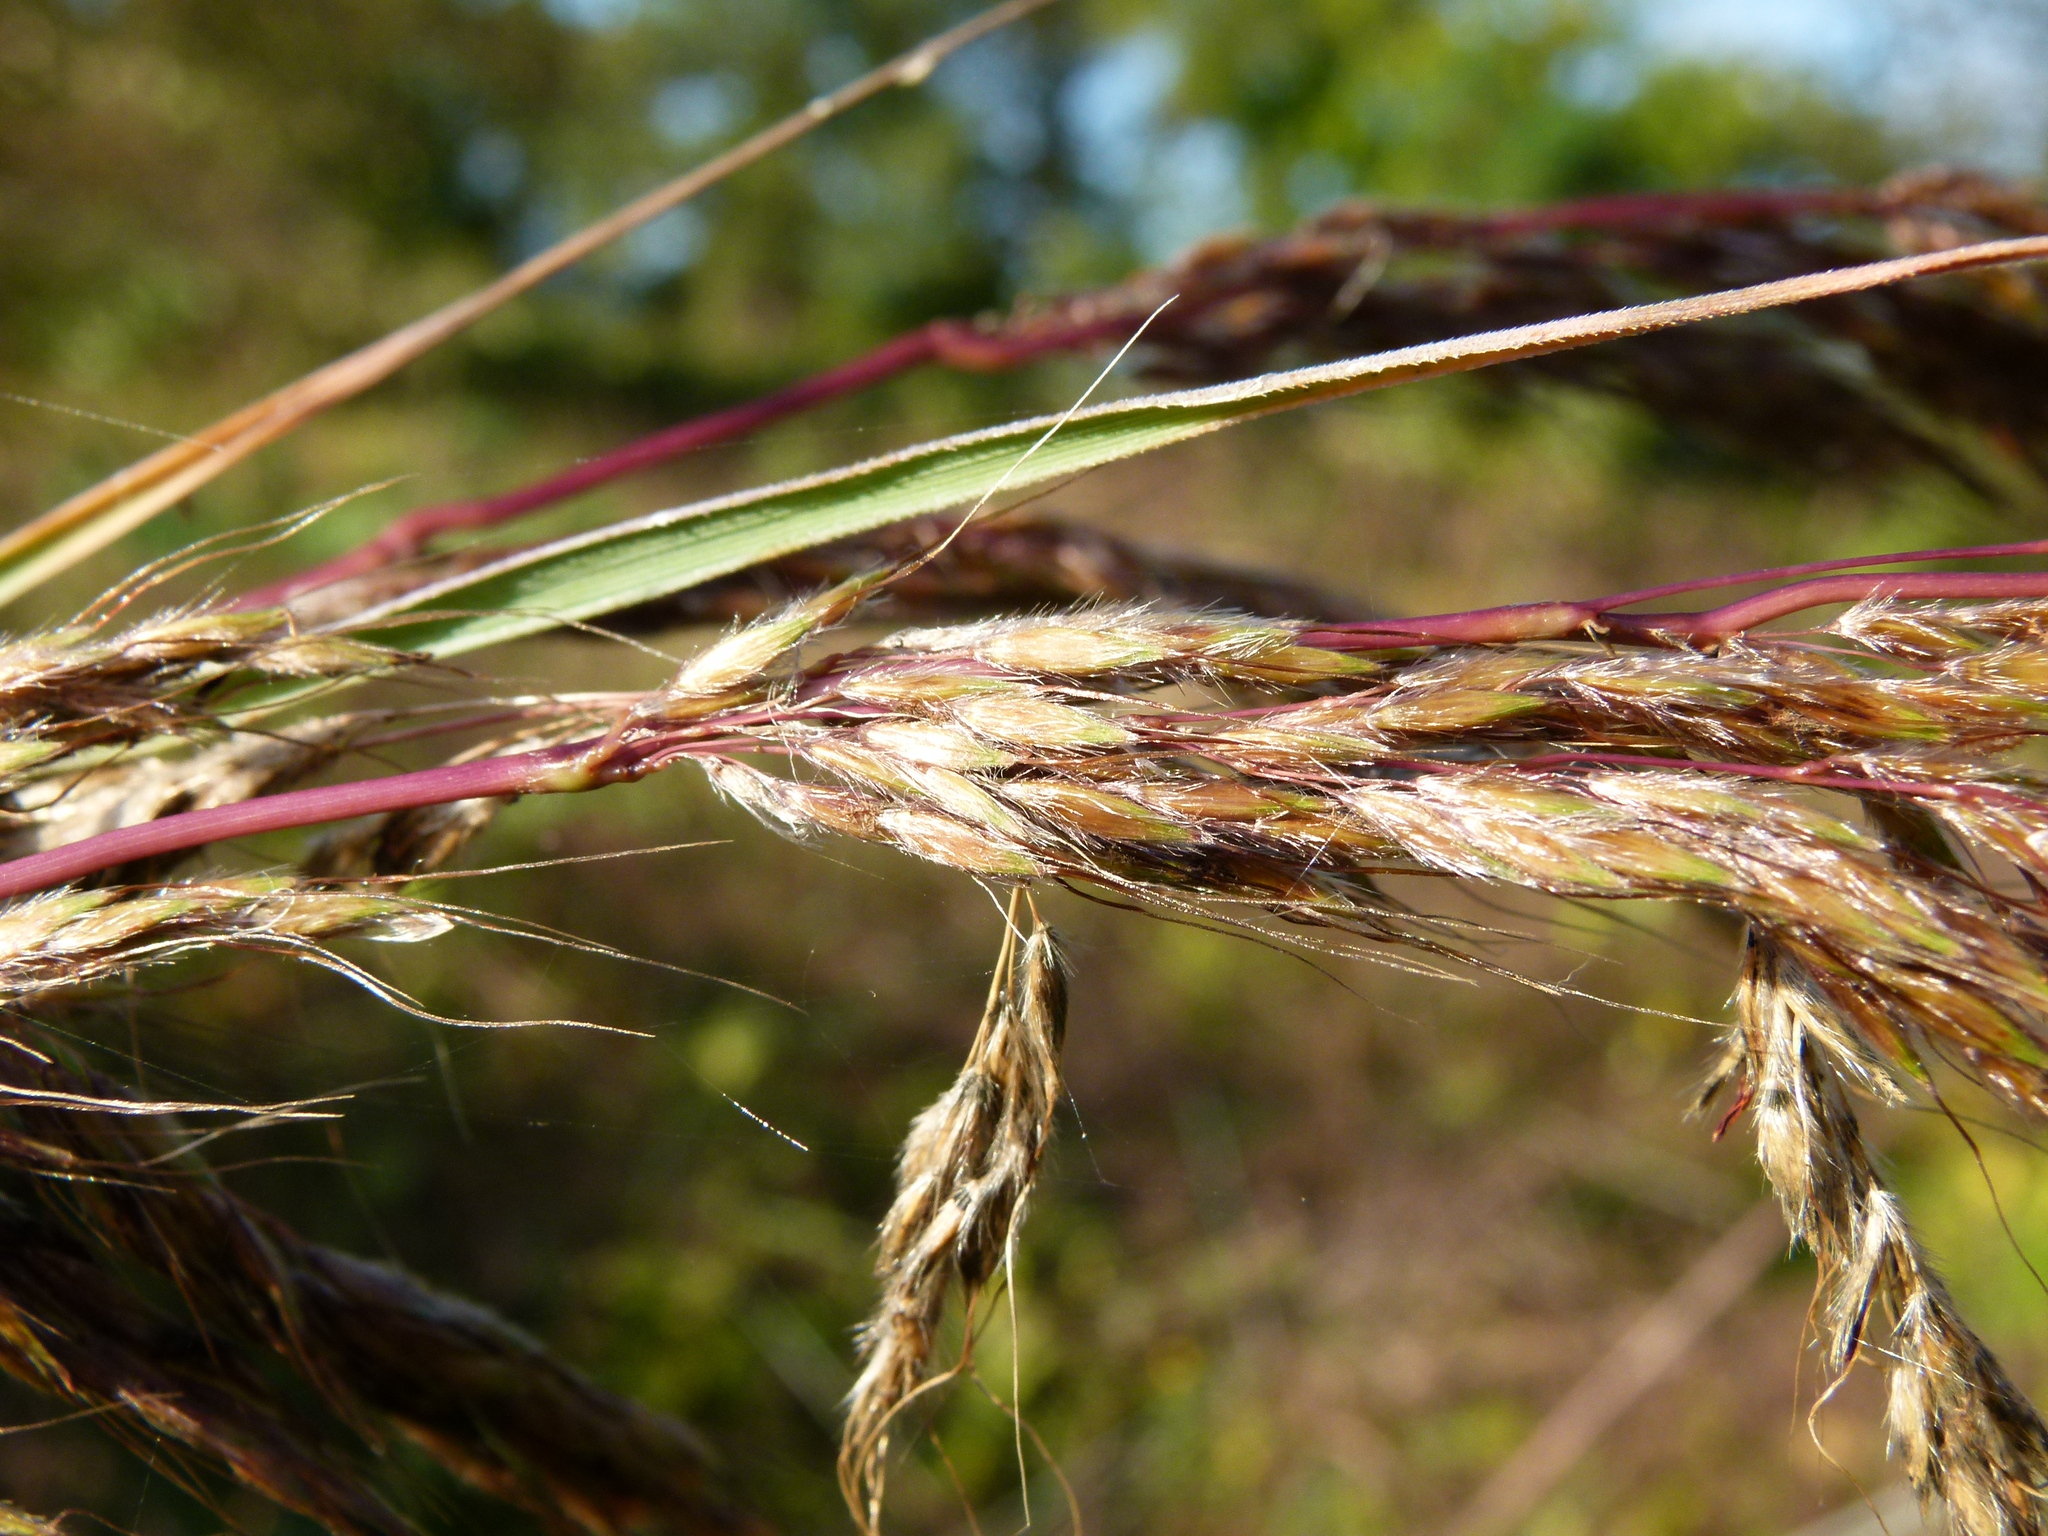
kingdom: Plantae
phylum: Tracheophyta
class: Liliopsida
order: Poales
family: Poaceae
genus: Sorghastrum
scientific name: Sorghastrum nutans
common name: Indian grass
